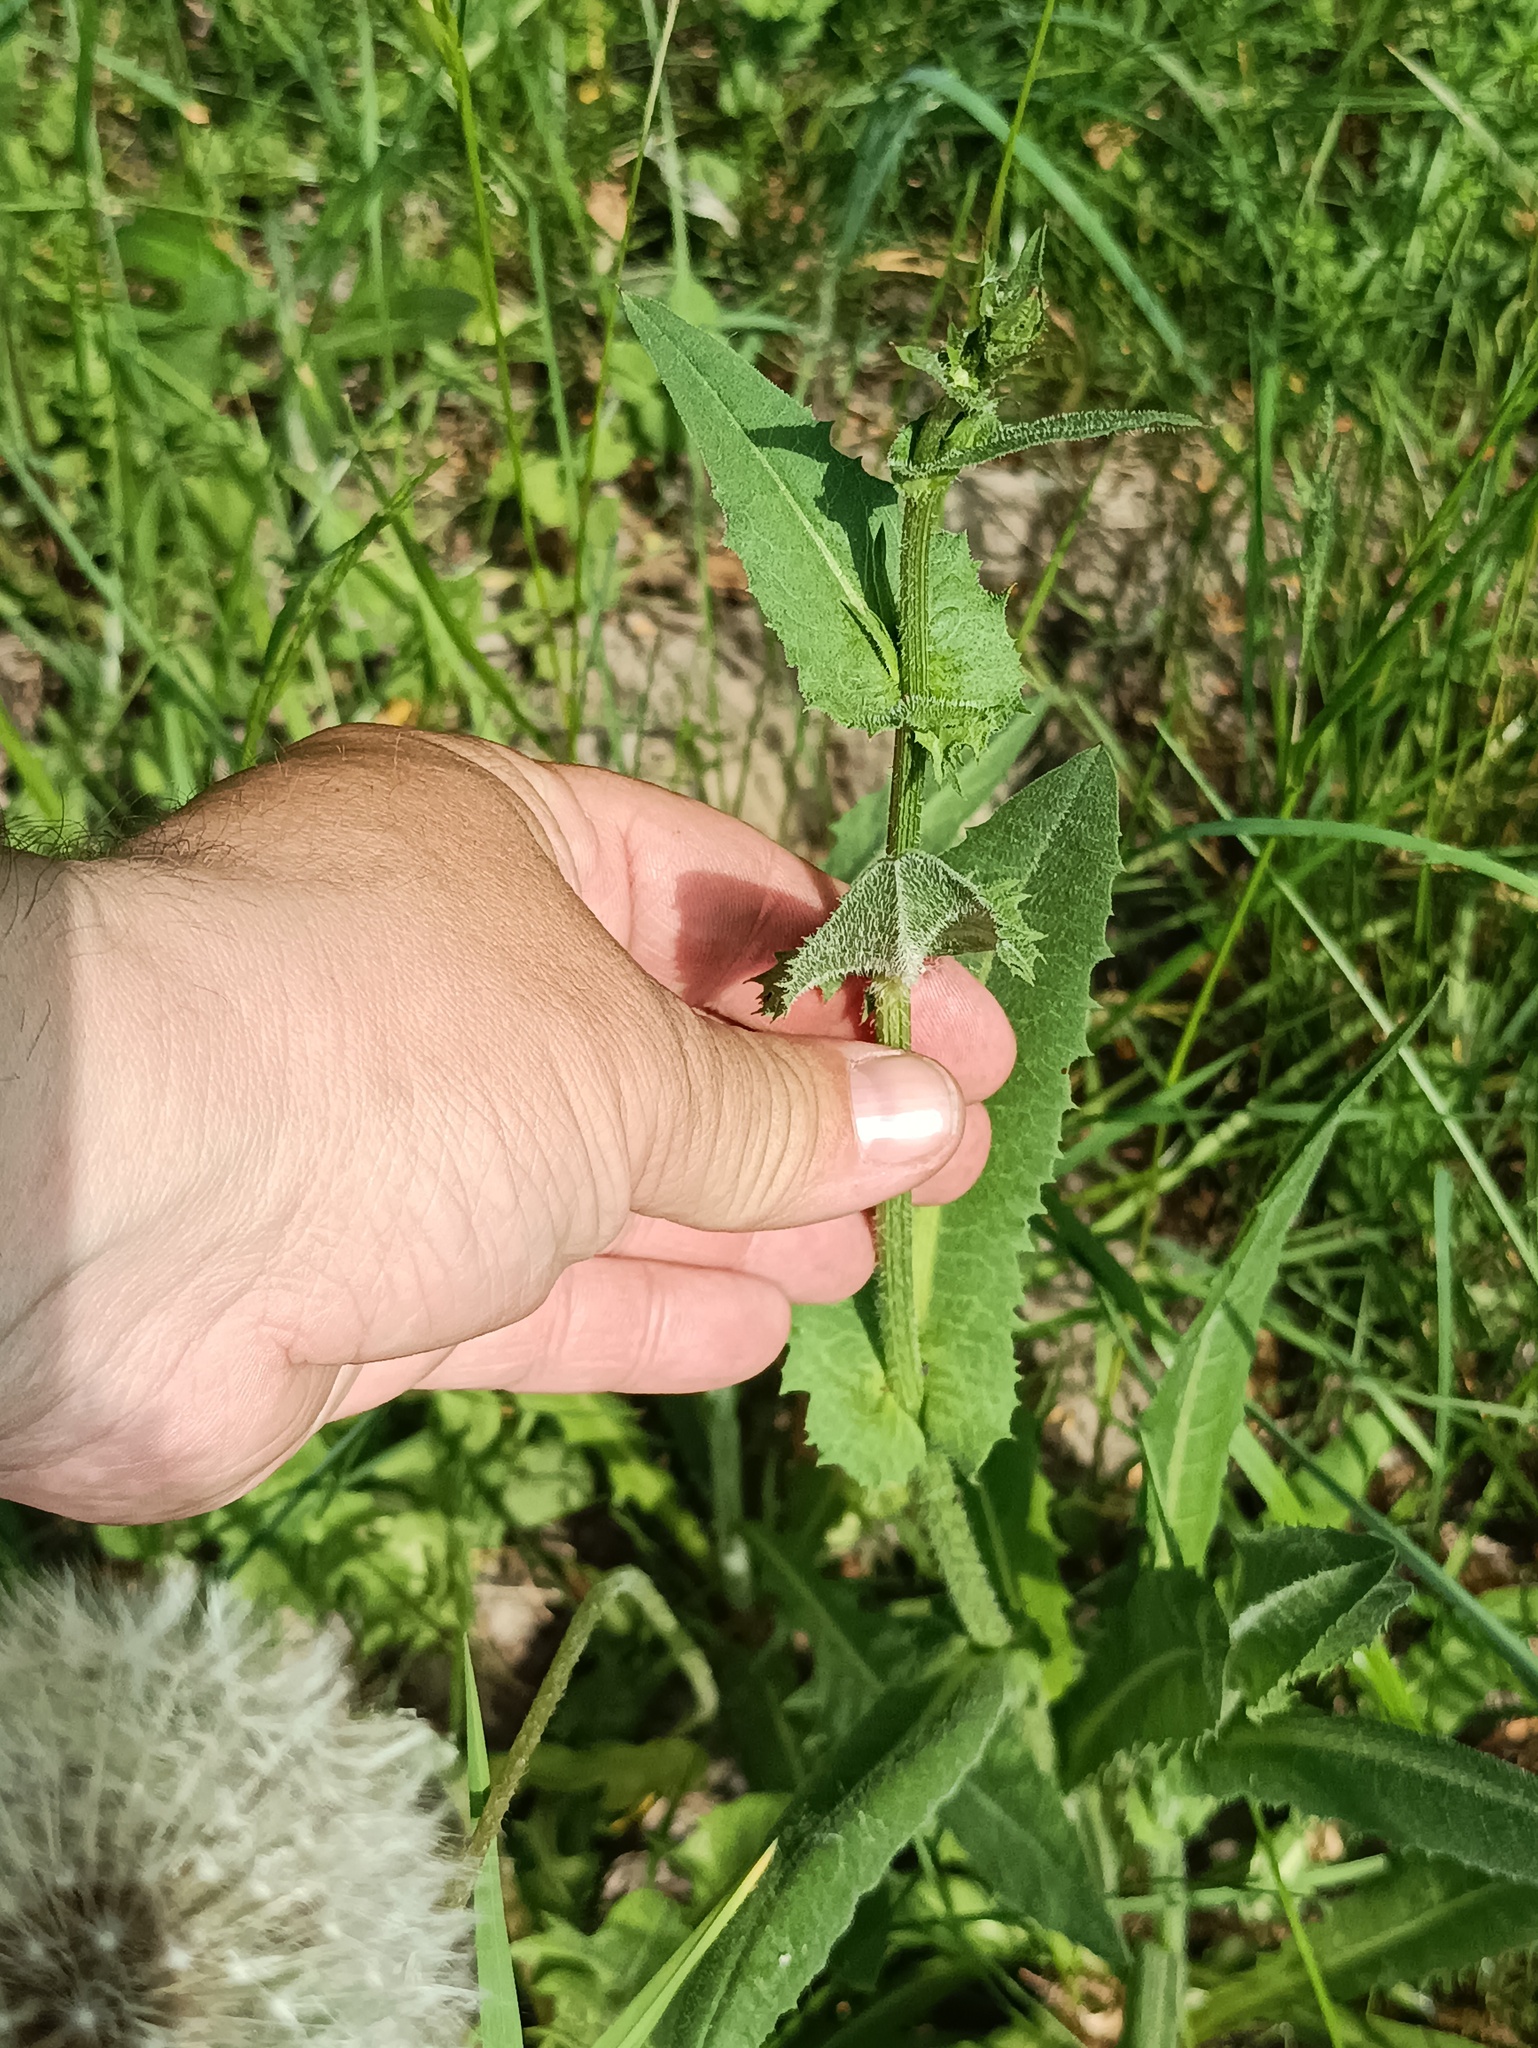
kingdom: Plantae
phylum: Tracheophyta
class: Magnoliopsida
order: Asterales
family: Asteraceae
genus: Cichorium
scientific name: Cichorium intybus
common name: Chicory
